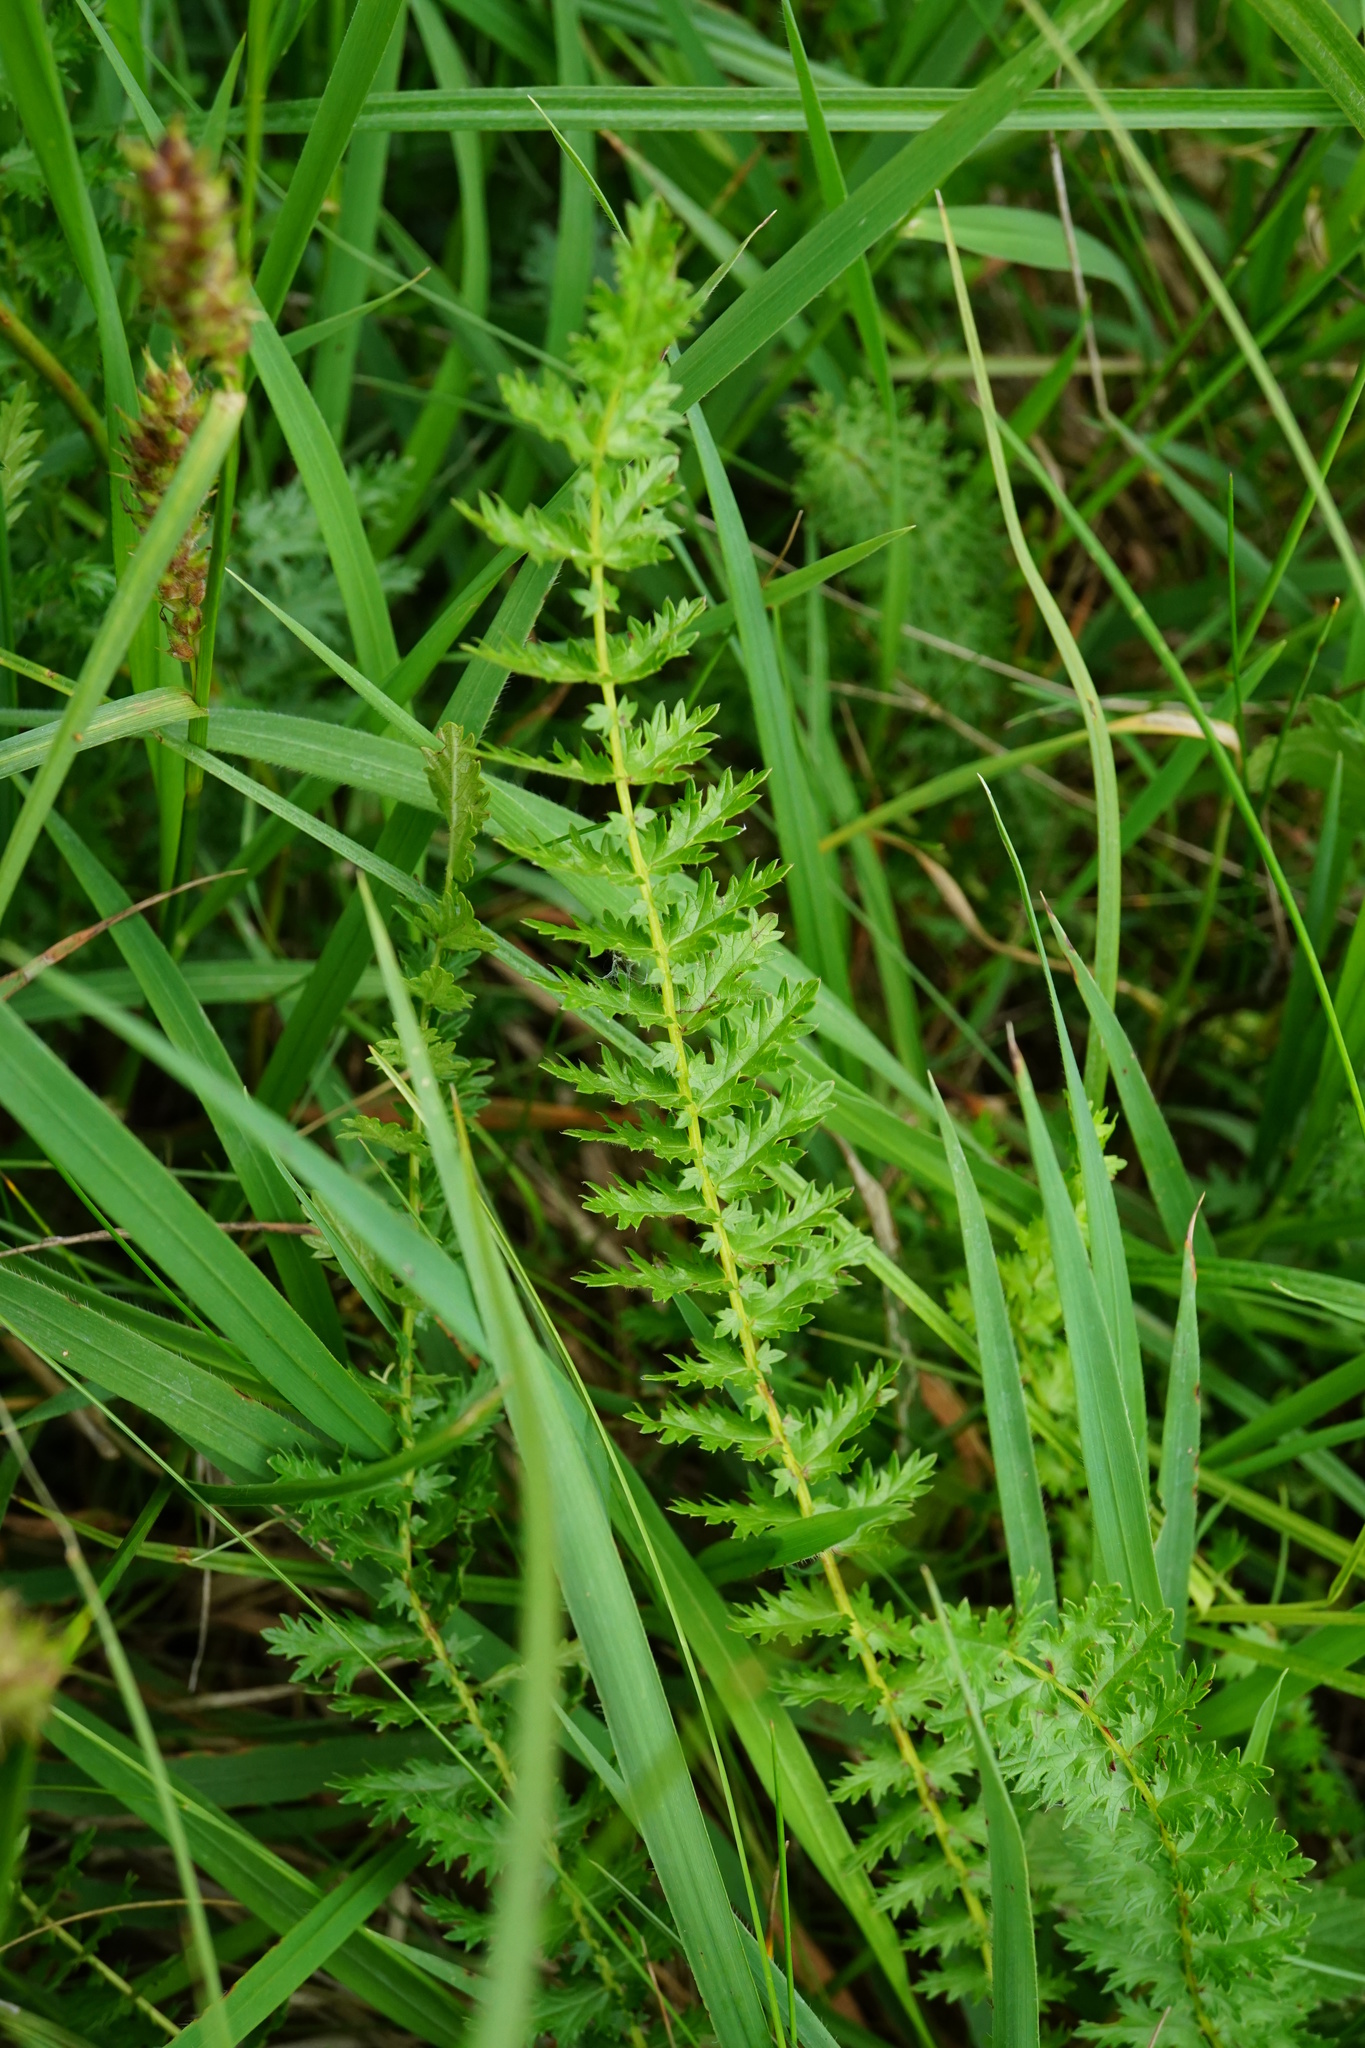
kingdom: Plantae
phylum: Tracheophyta
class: Magnoliopsida
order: Rosales
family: Rosaceae
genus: Filipendula
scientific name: Filipendula vulgaris
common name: Dropwort
